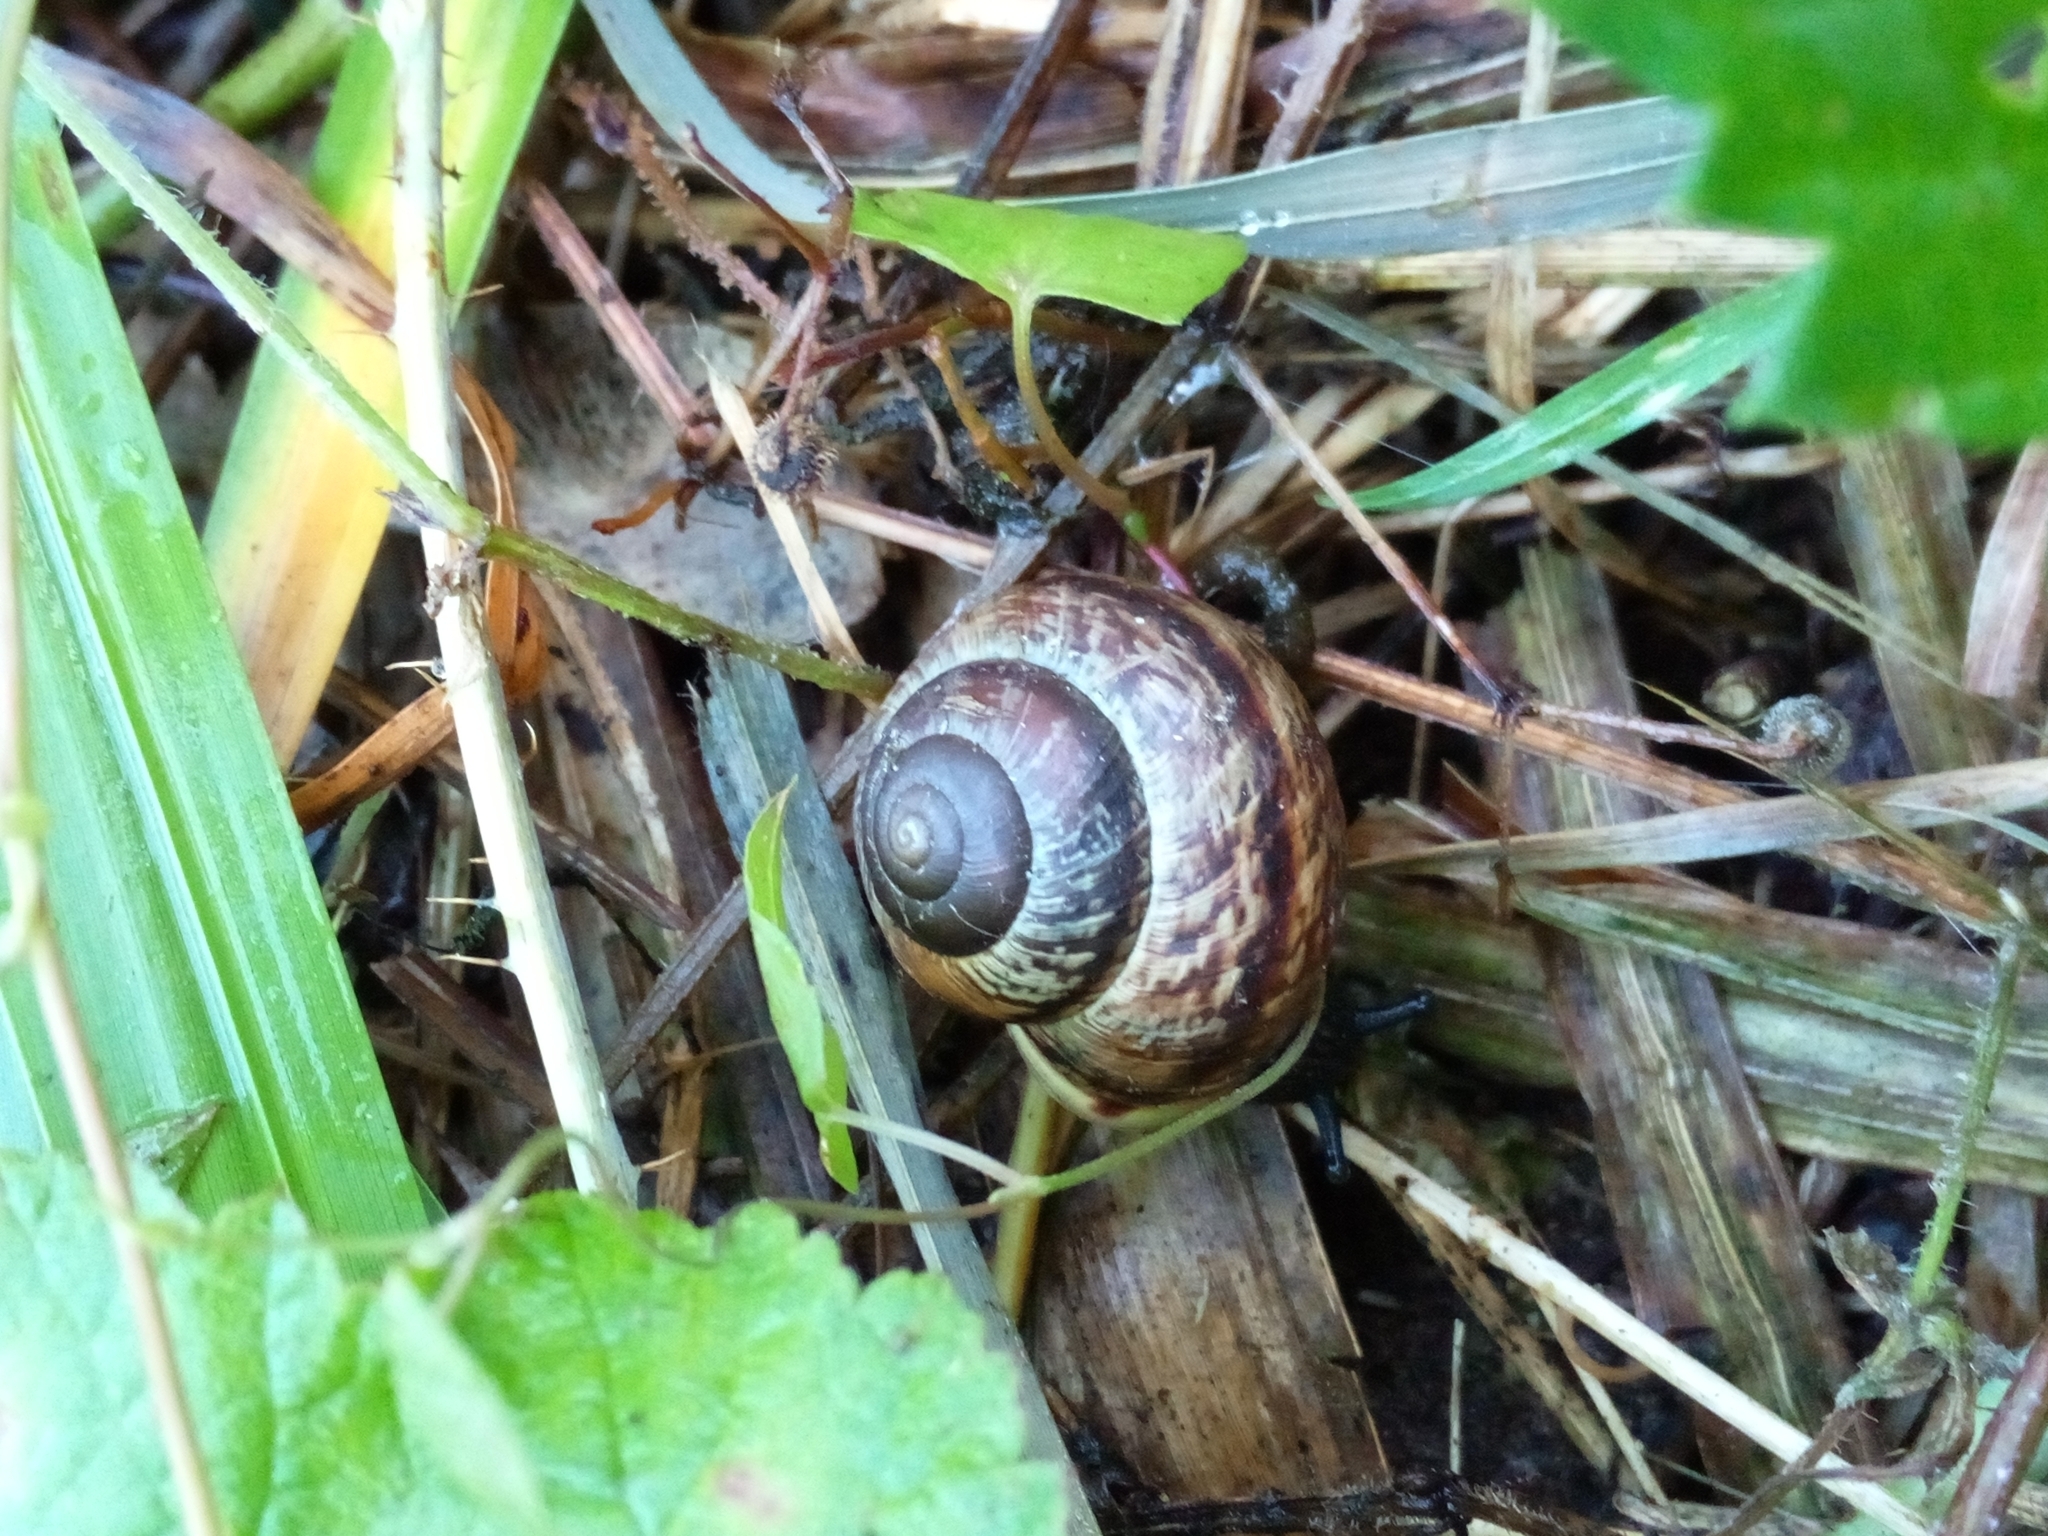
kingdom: Animalia
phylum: Mollusca
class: Gastropoda
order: Stylommatophora
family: Helicidae
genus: Arianta
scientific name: Arianta arbustorum
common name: Copse snail
